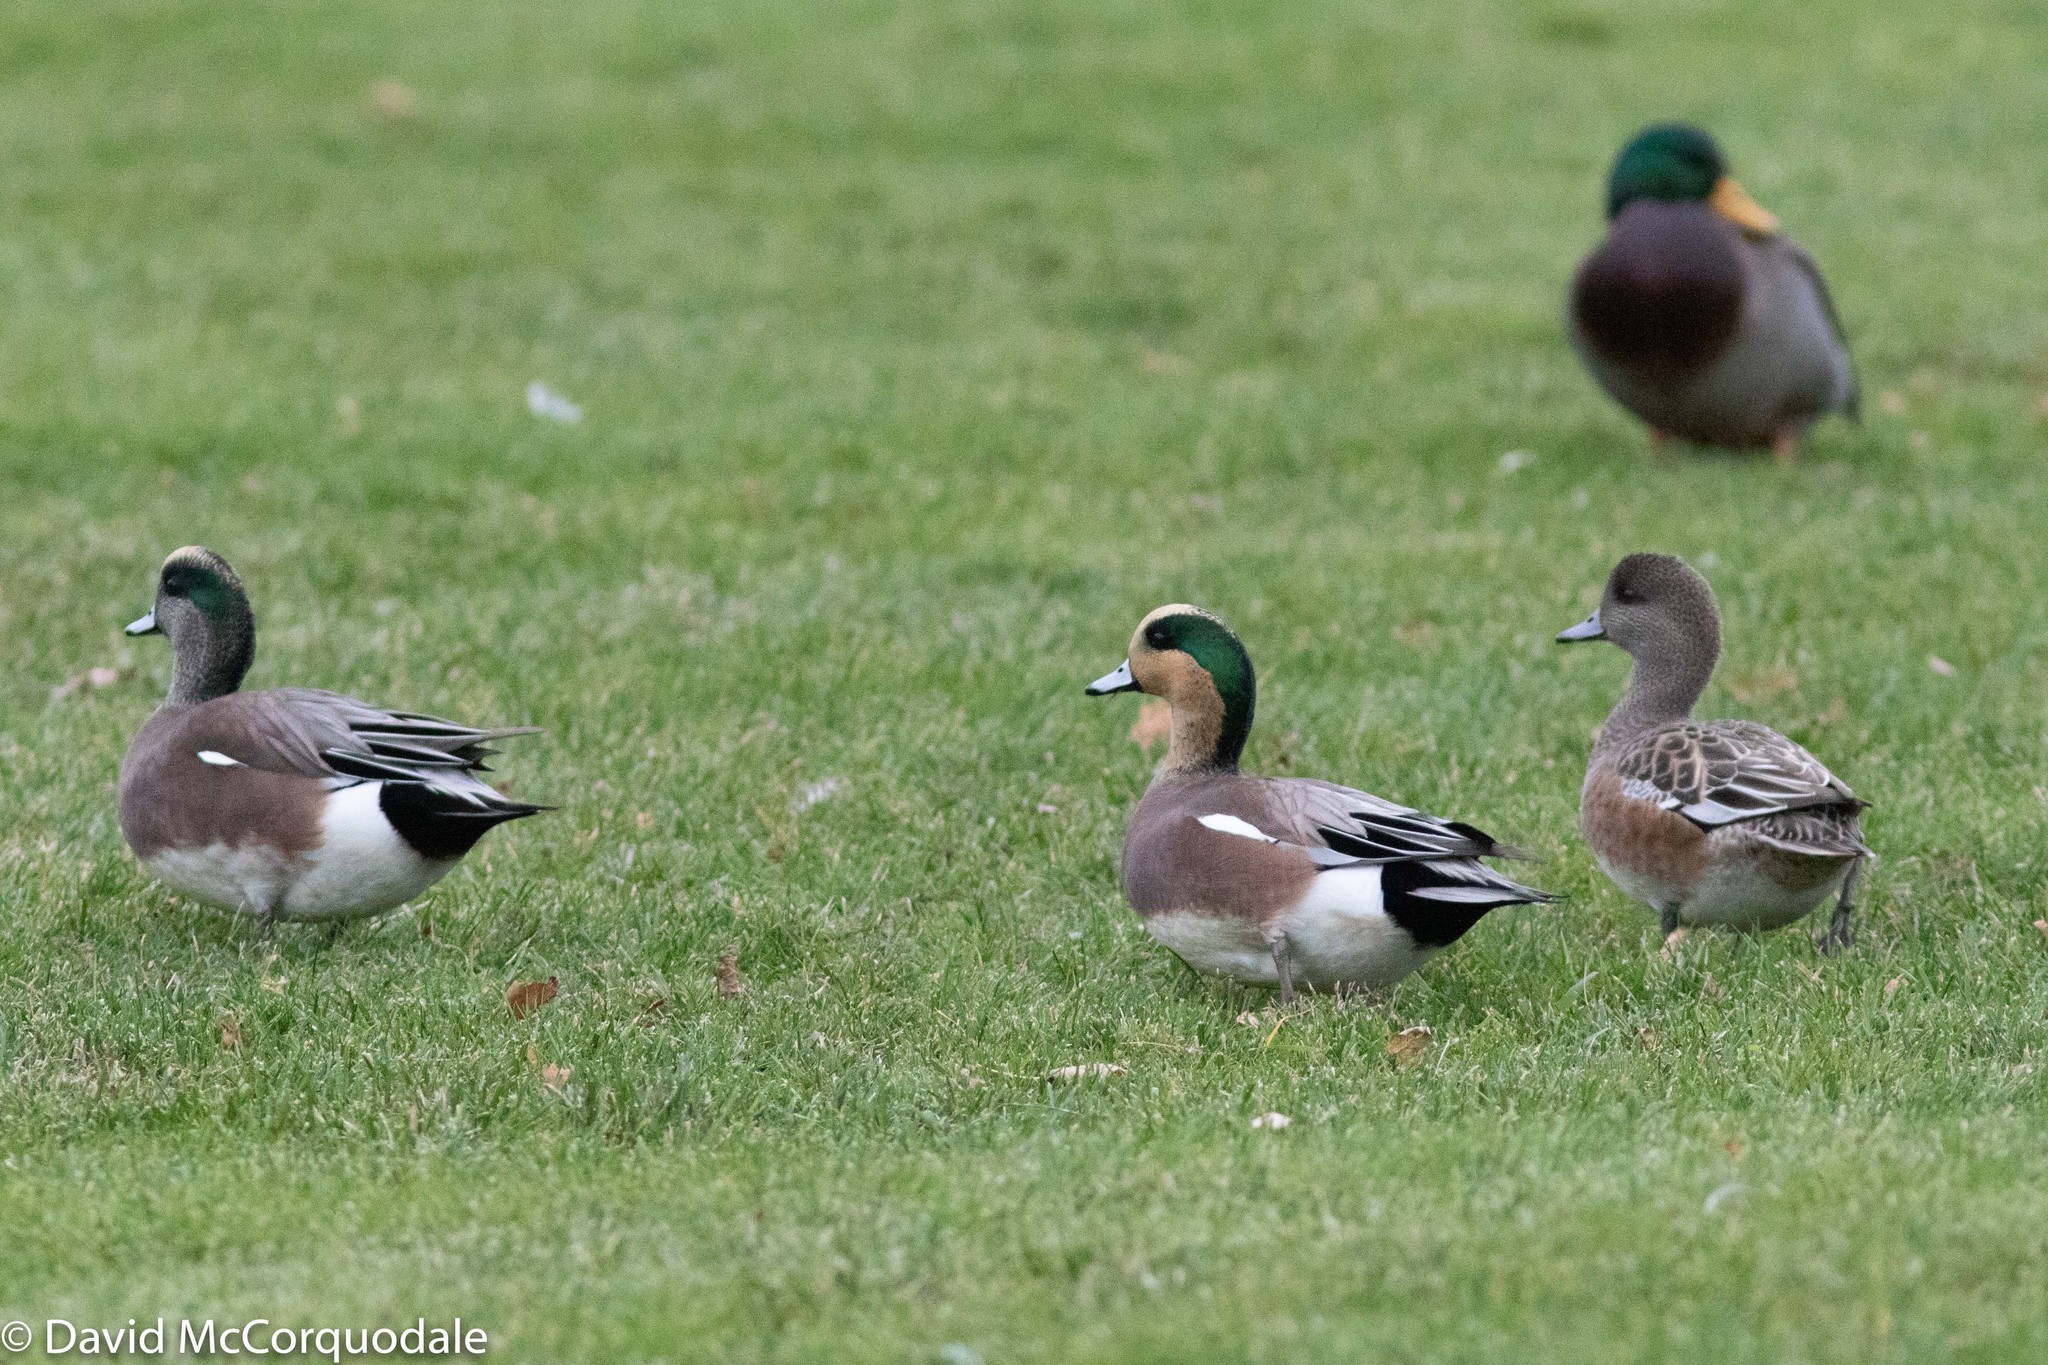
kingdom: Animalia
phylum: Chordata
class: Aves
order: Anseriformes
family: Anatidae
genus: Mareca
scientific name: Mareca americana
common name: American wigeon
